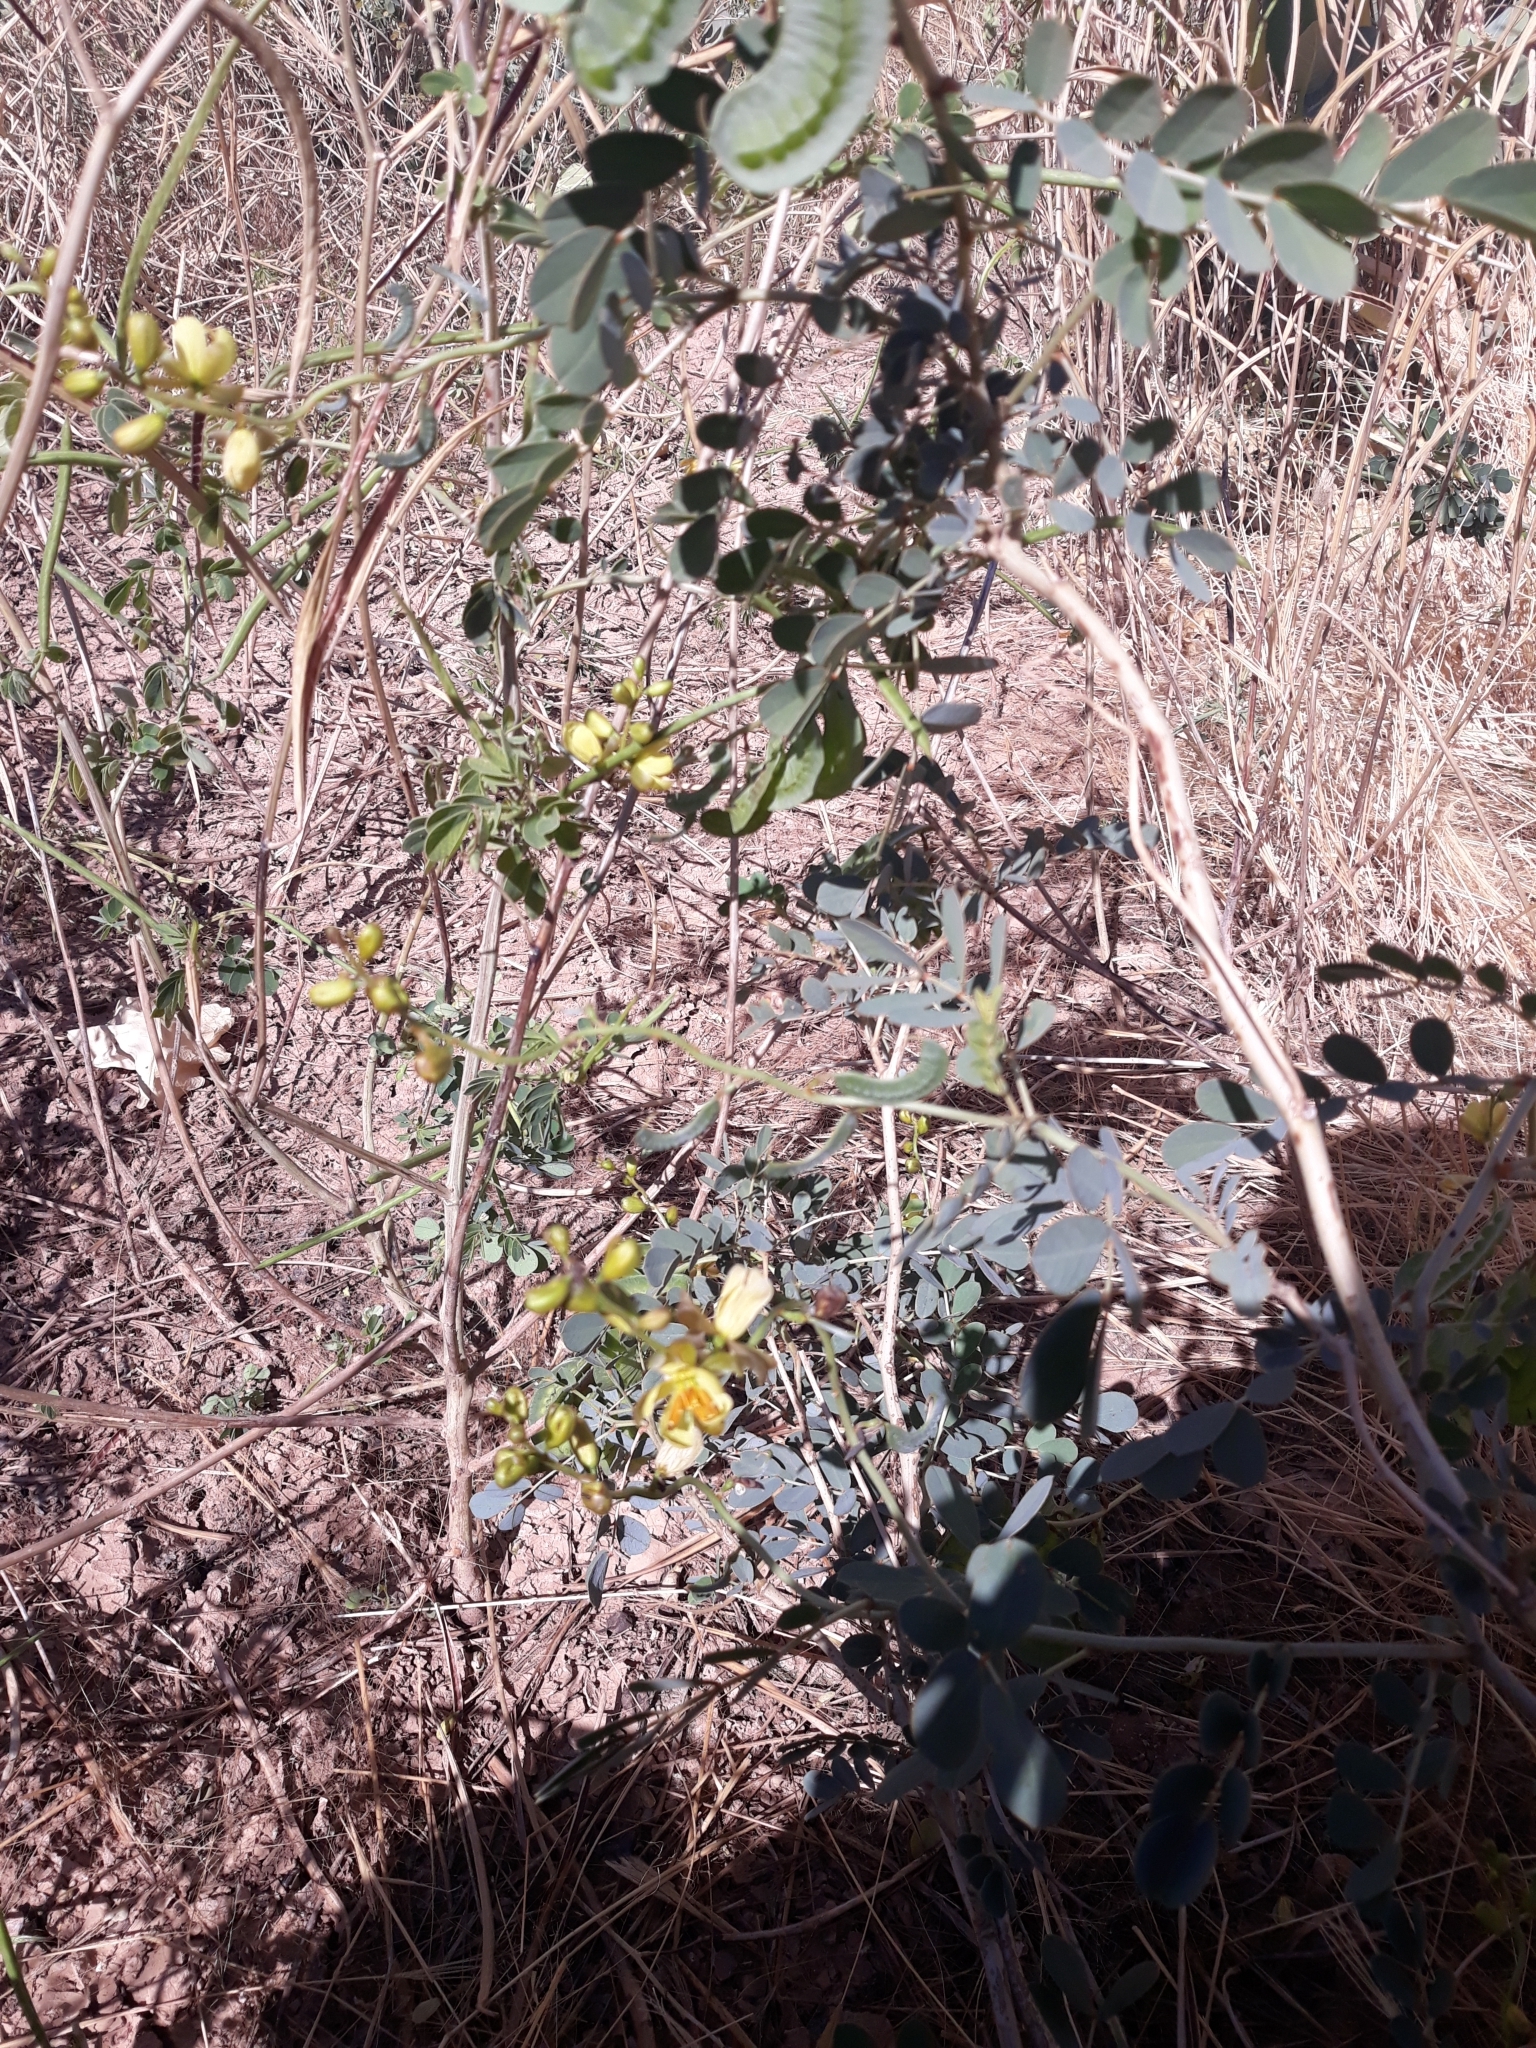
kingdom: Plantae
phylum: Tracheophyta
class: Magnoliopsida
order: Fabales
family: Fabaceae
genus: Senna
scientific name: Senna italica
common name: Port royal senna
